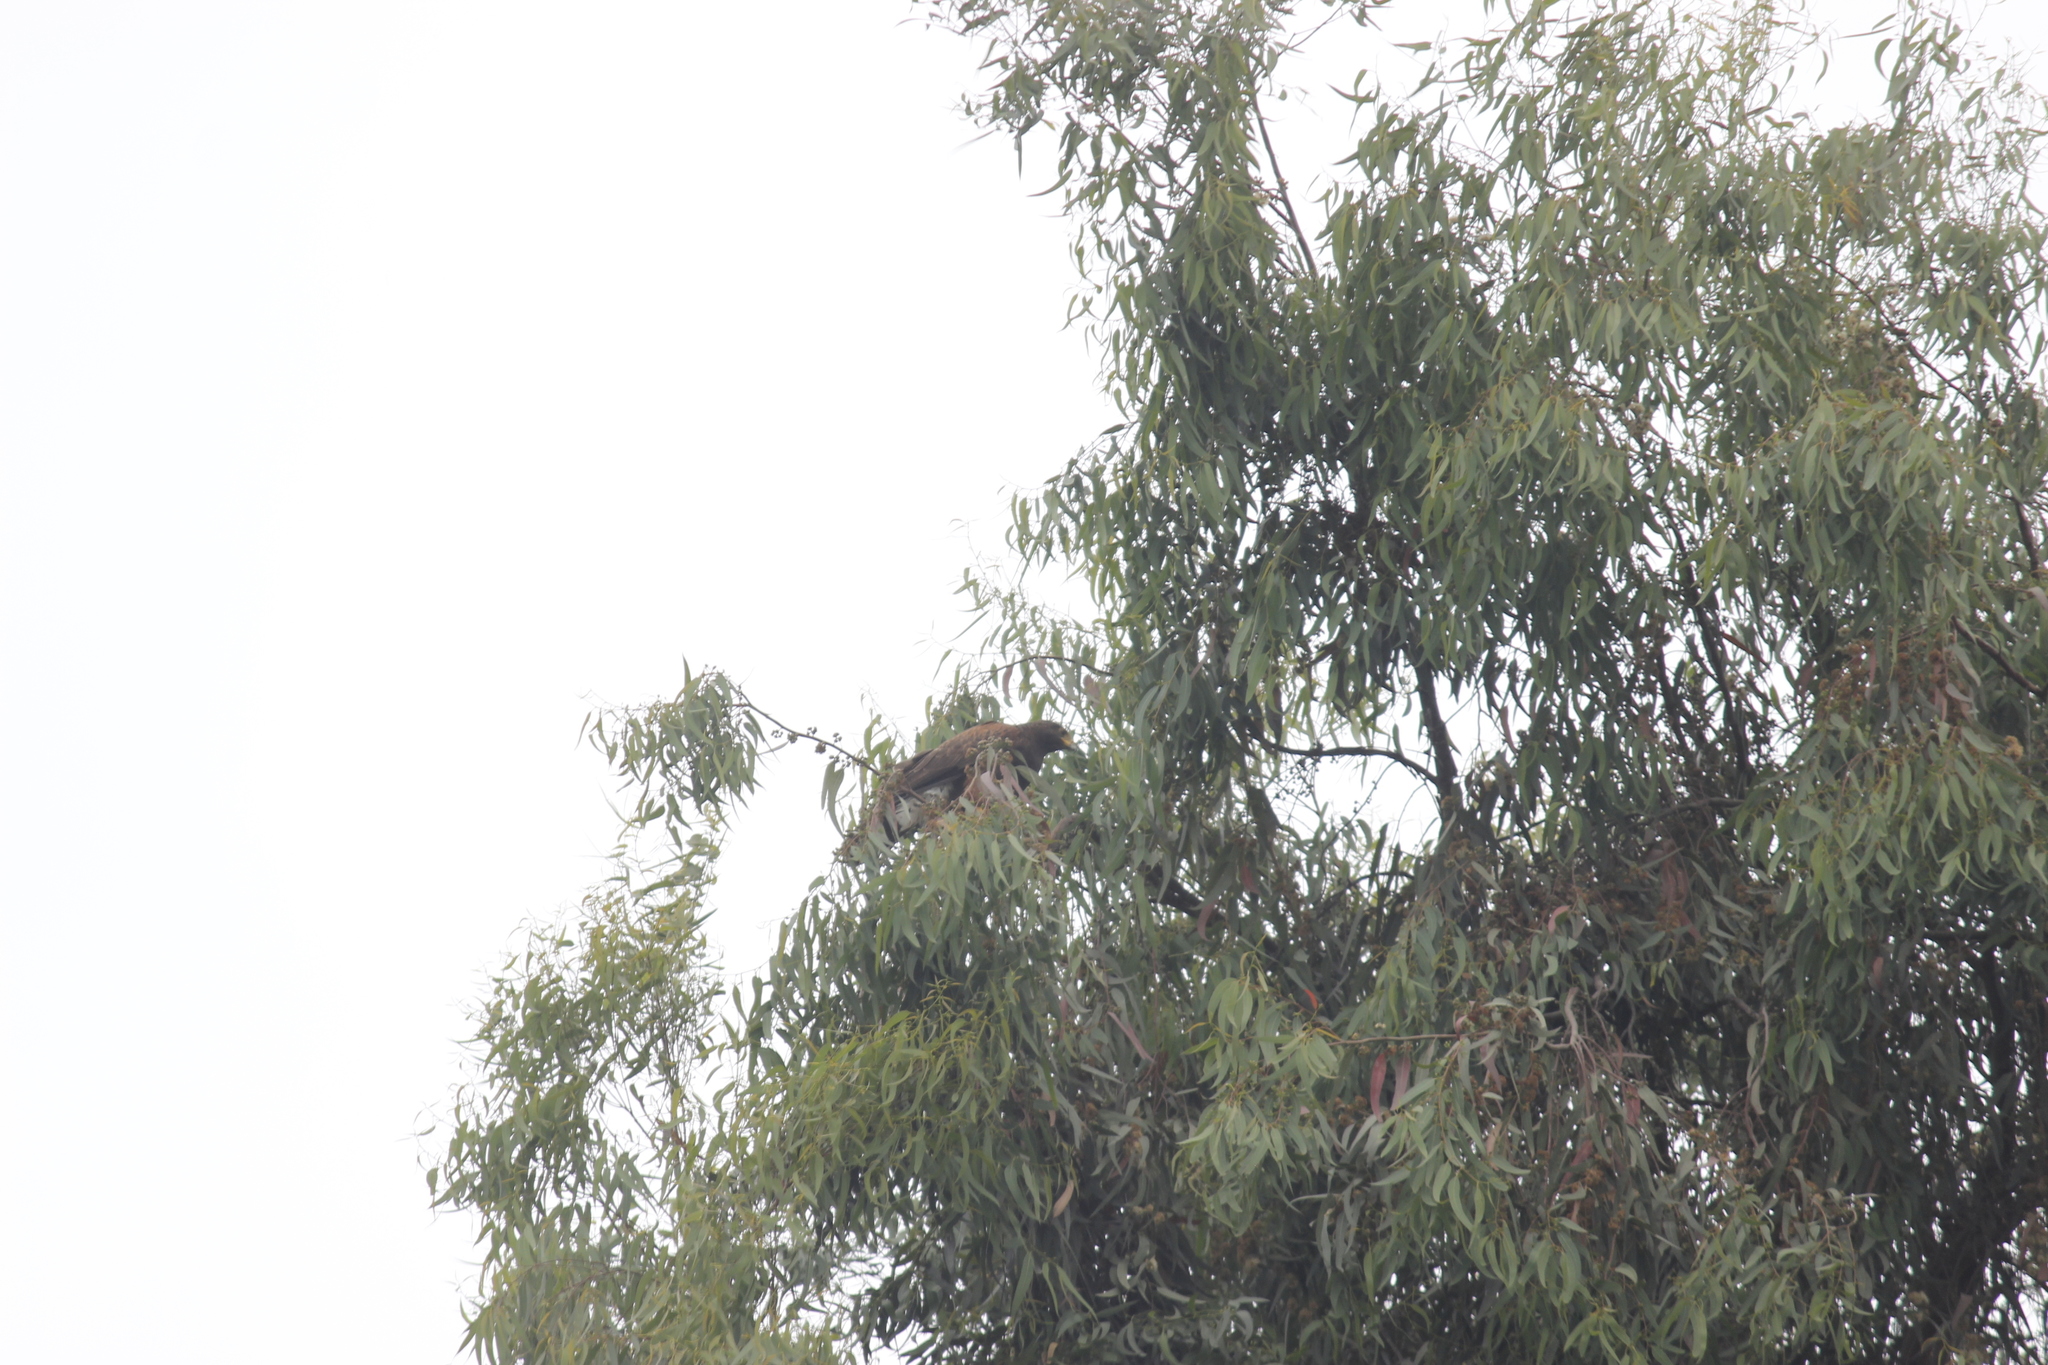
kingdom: Animalia
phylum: Chordata
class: Aves
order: Accipitriformes
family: Accipitridae
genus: Parabuteo
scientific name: Parabuteo unicinctus
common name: Harris's hawk
